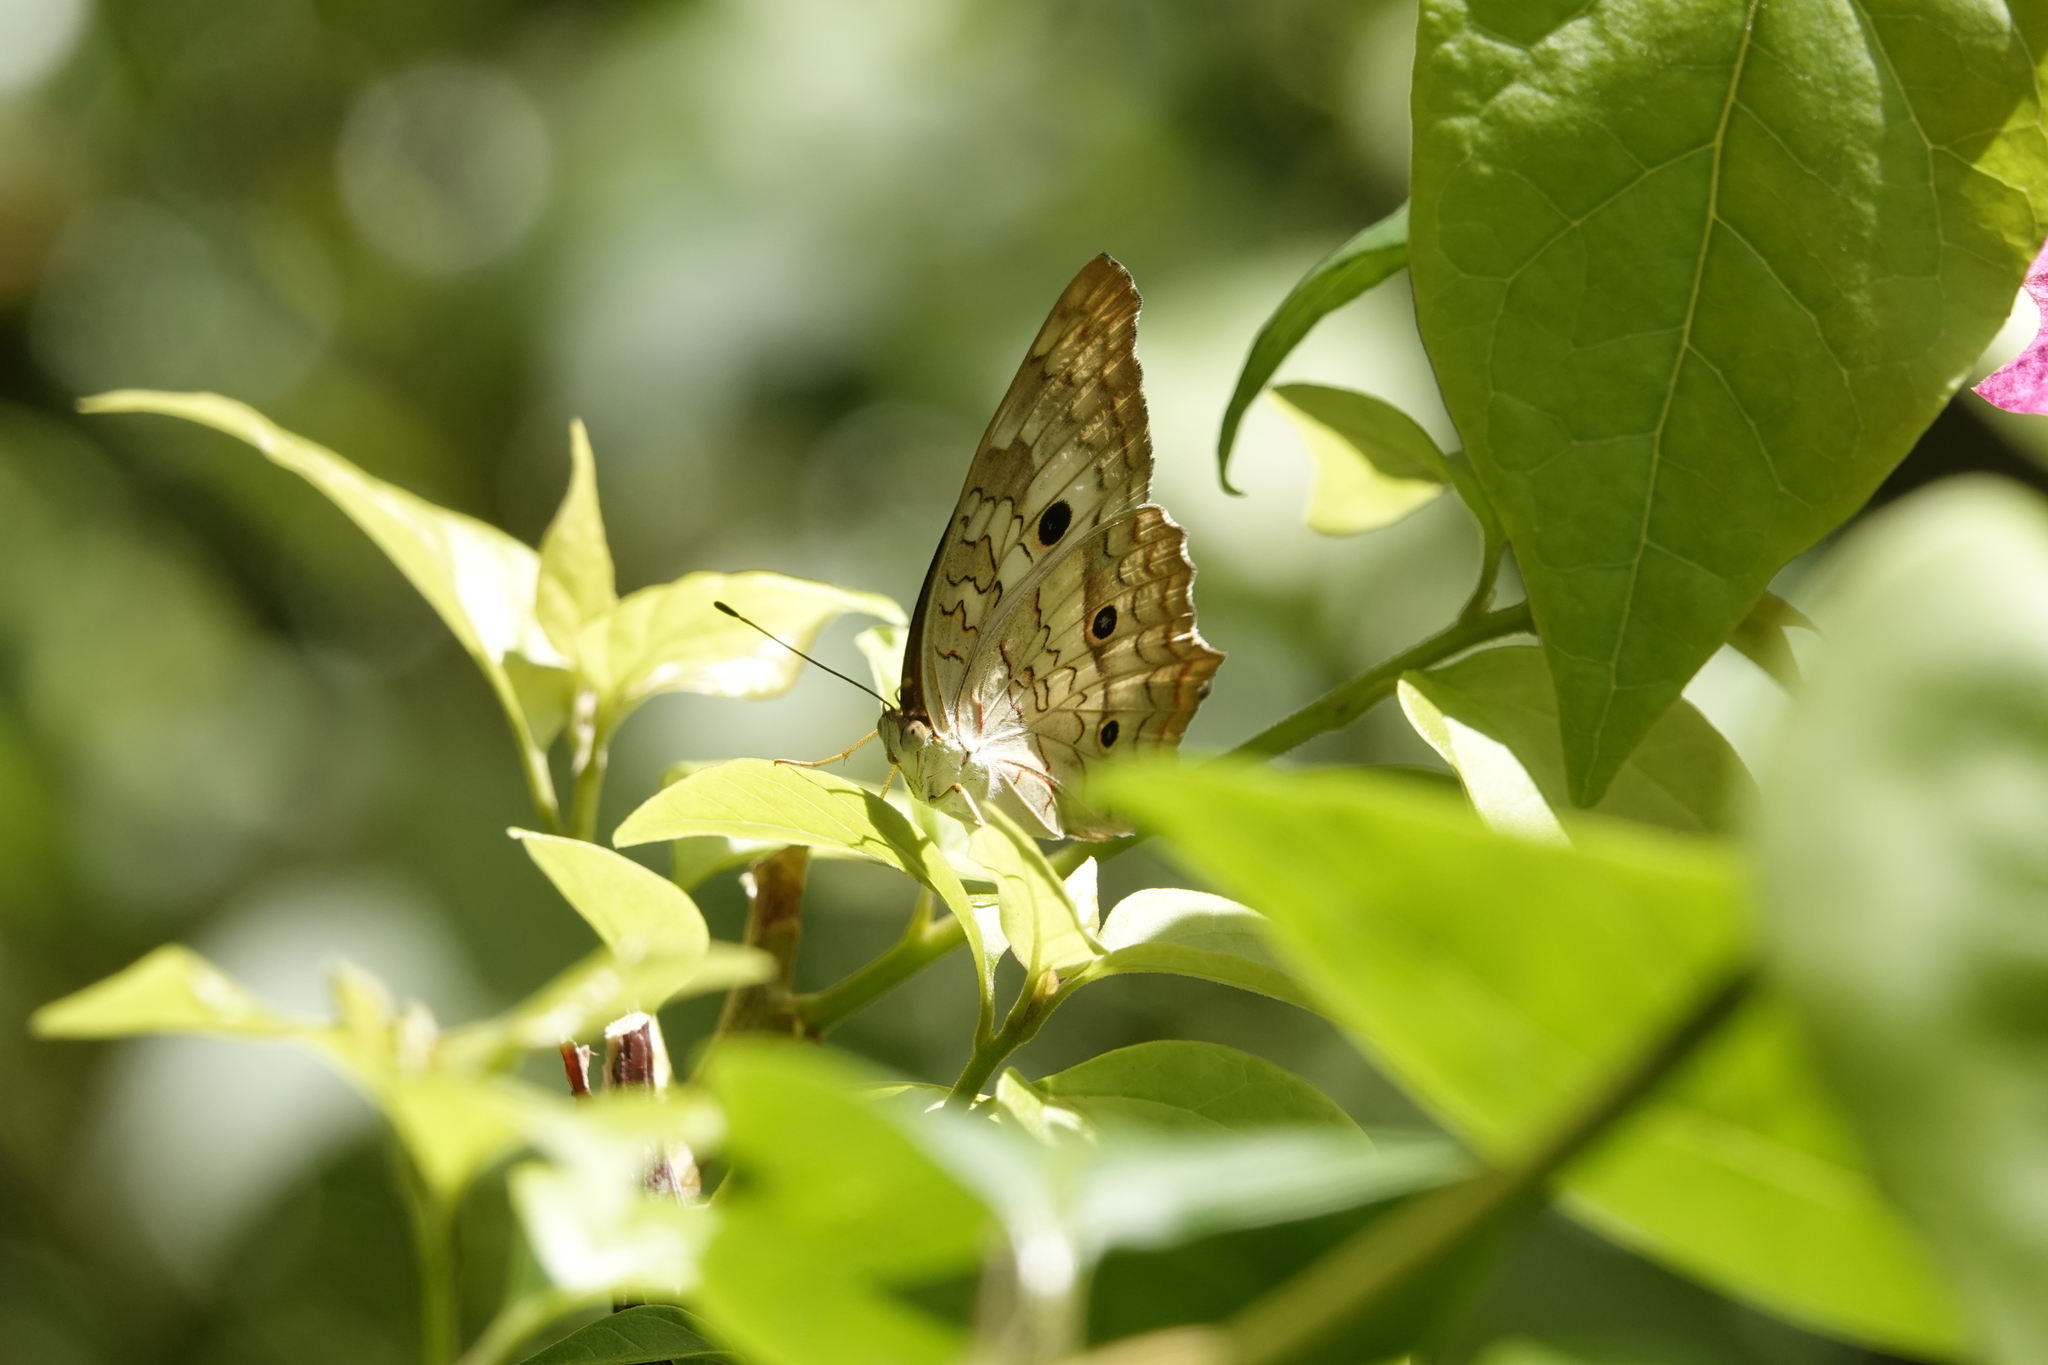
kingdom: Animalia
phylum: Arthropoda
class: Insecta
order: Lepidoptera
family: Nymphalidae
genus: Anartia
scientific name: Anartia jatrophae
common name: White peacock
